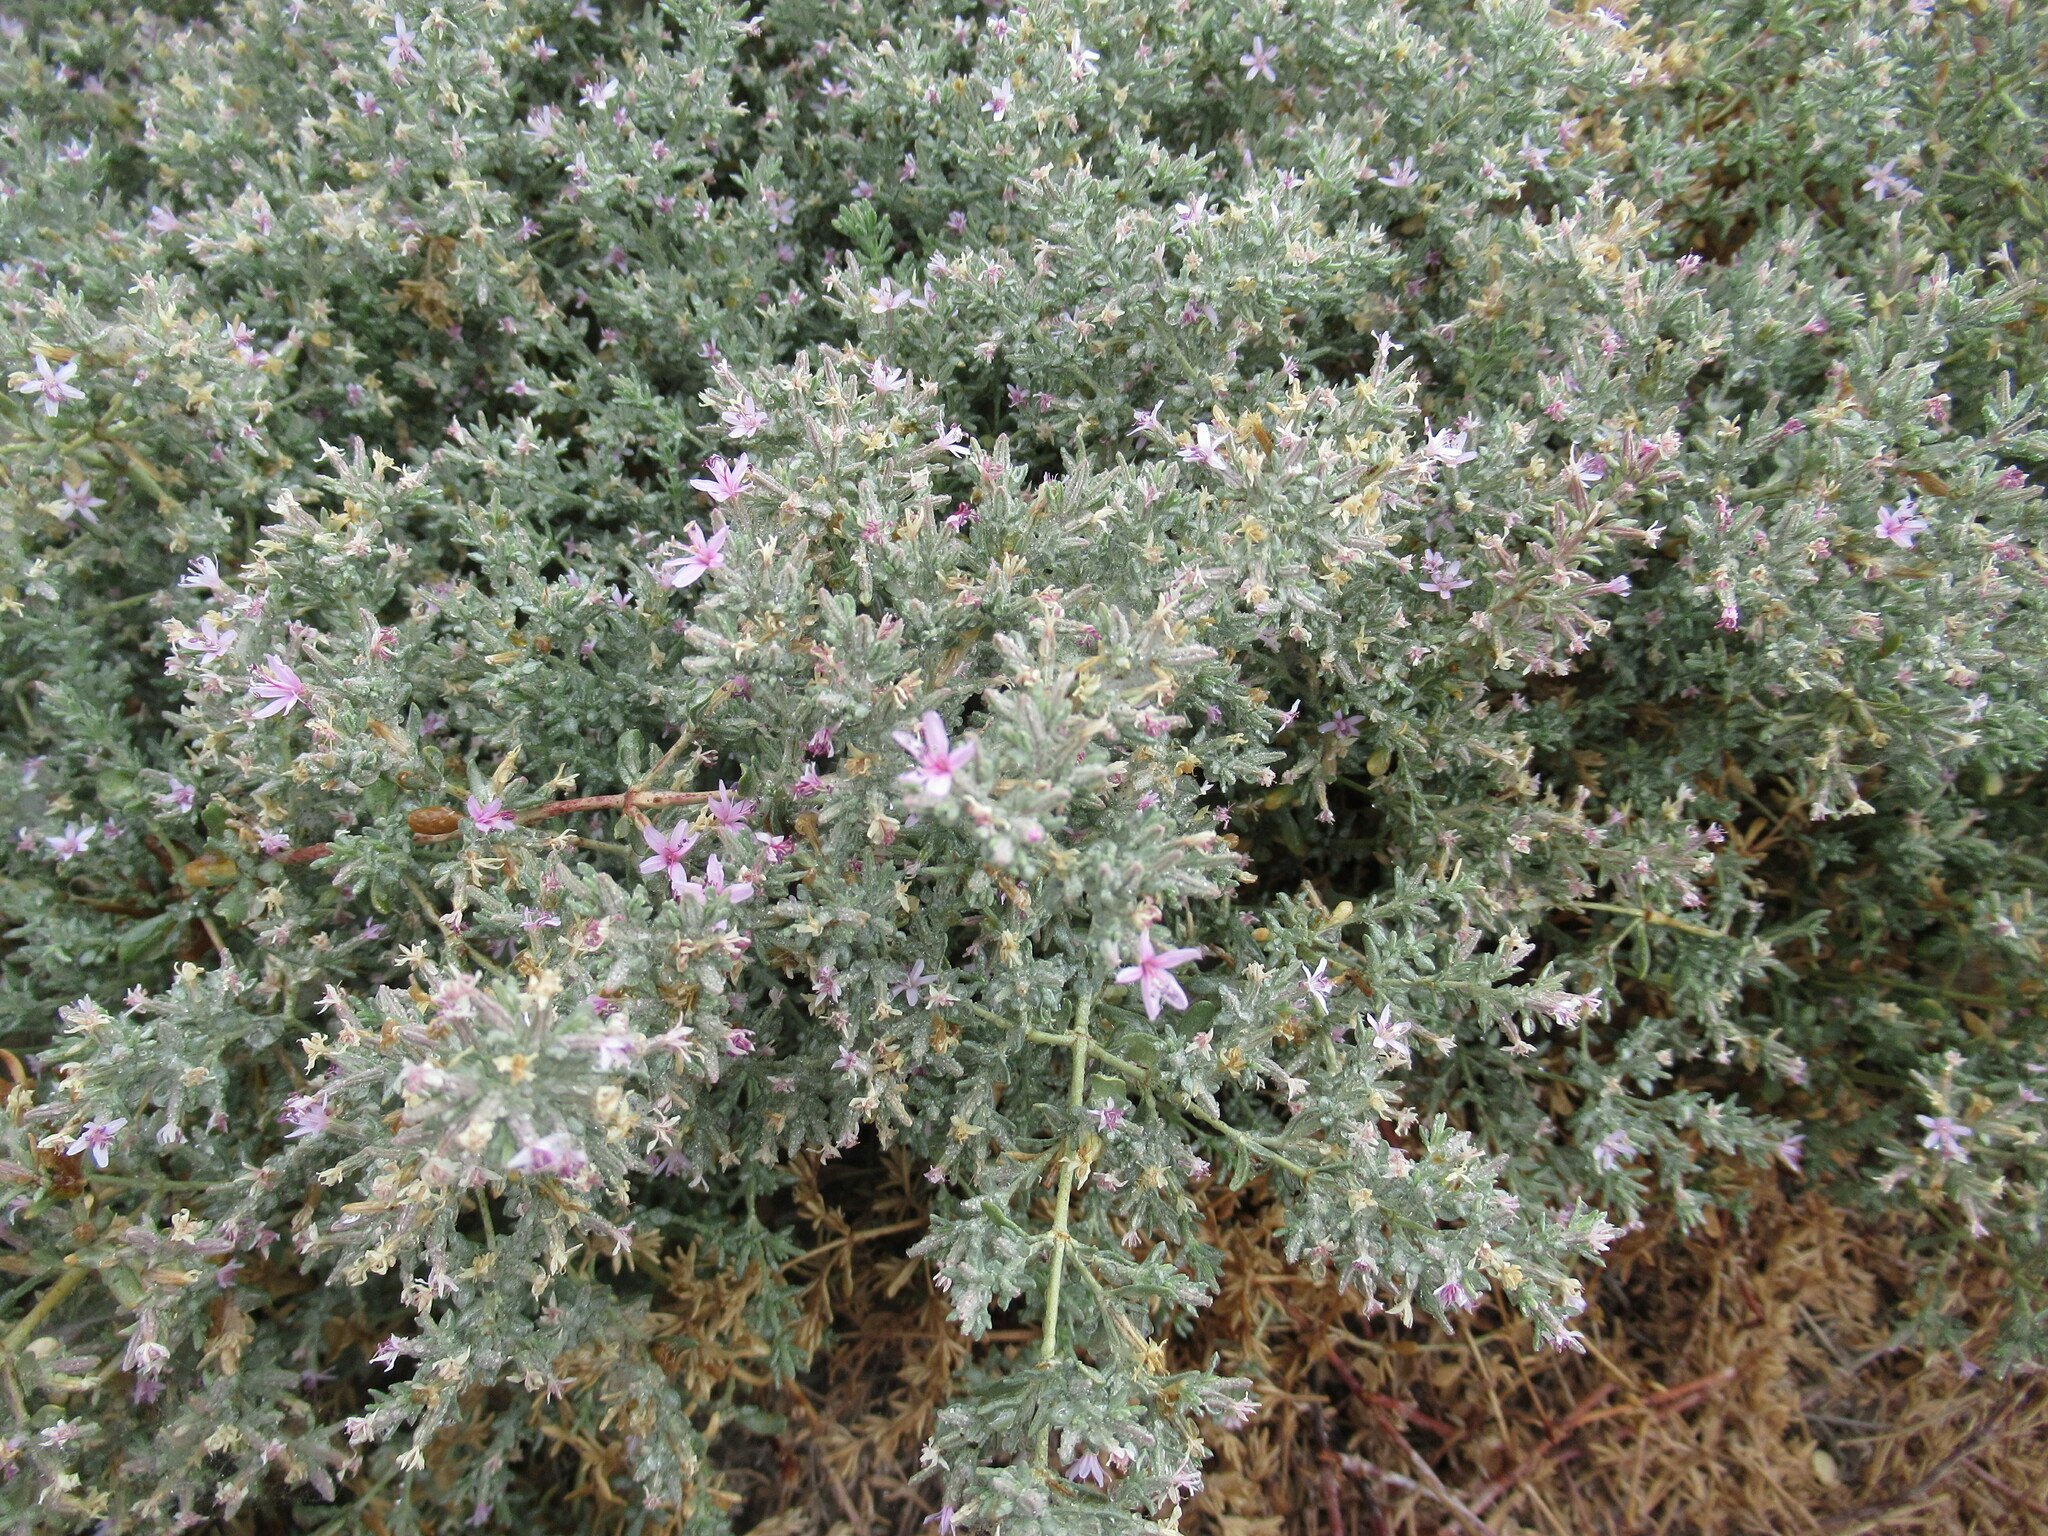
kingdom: Plantae
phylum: Tracheophyta
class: Magnoliopsida
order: Caryophyllales
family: Frankeniaceae
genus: Frankenia
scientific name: Frankenia salina
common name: Alkali seaheath
